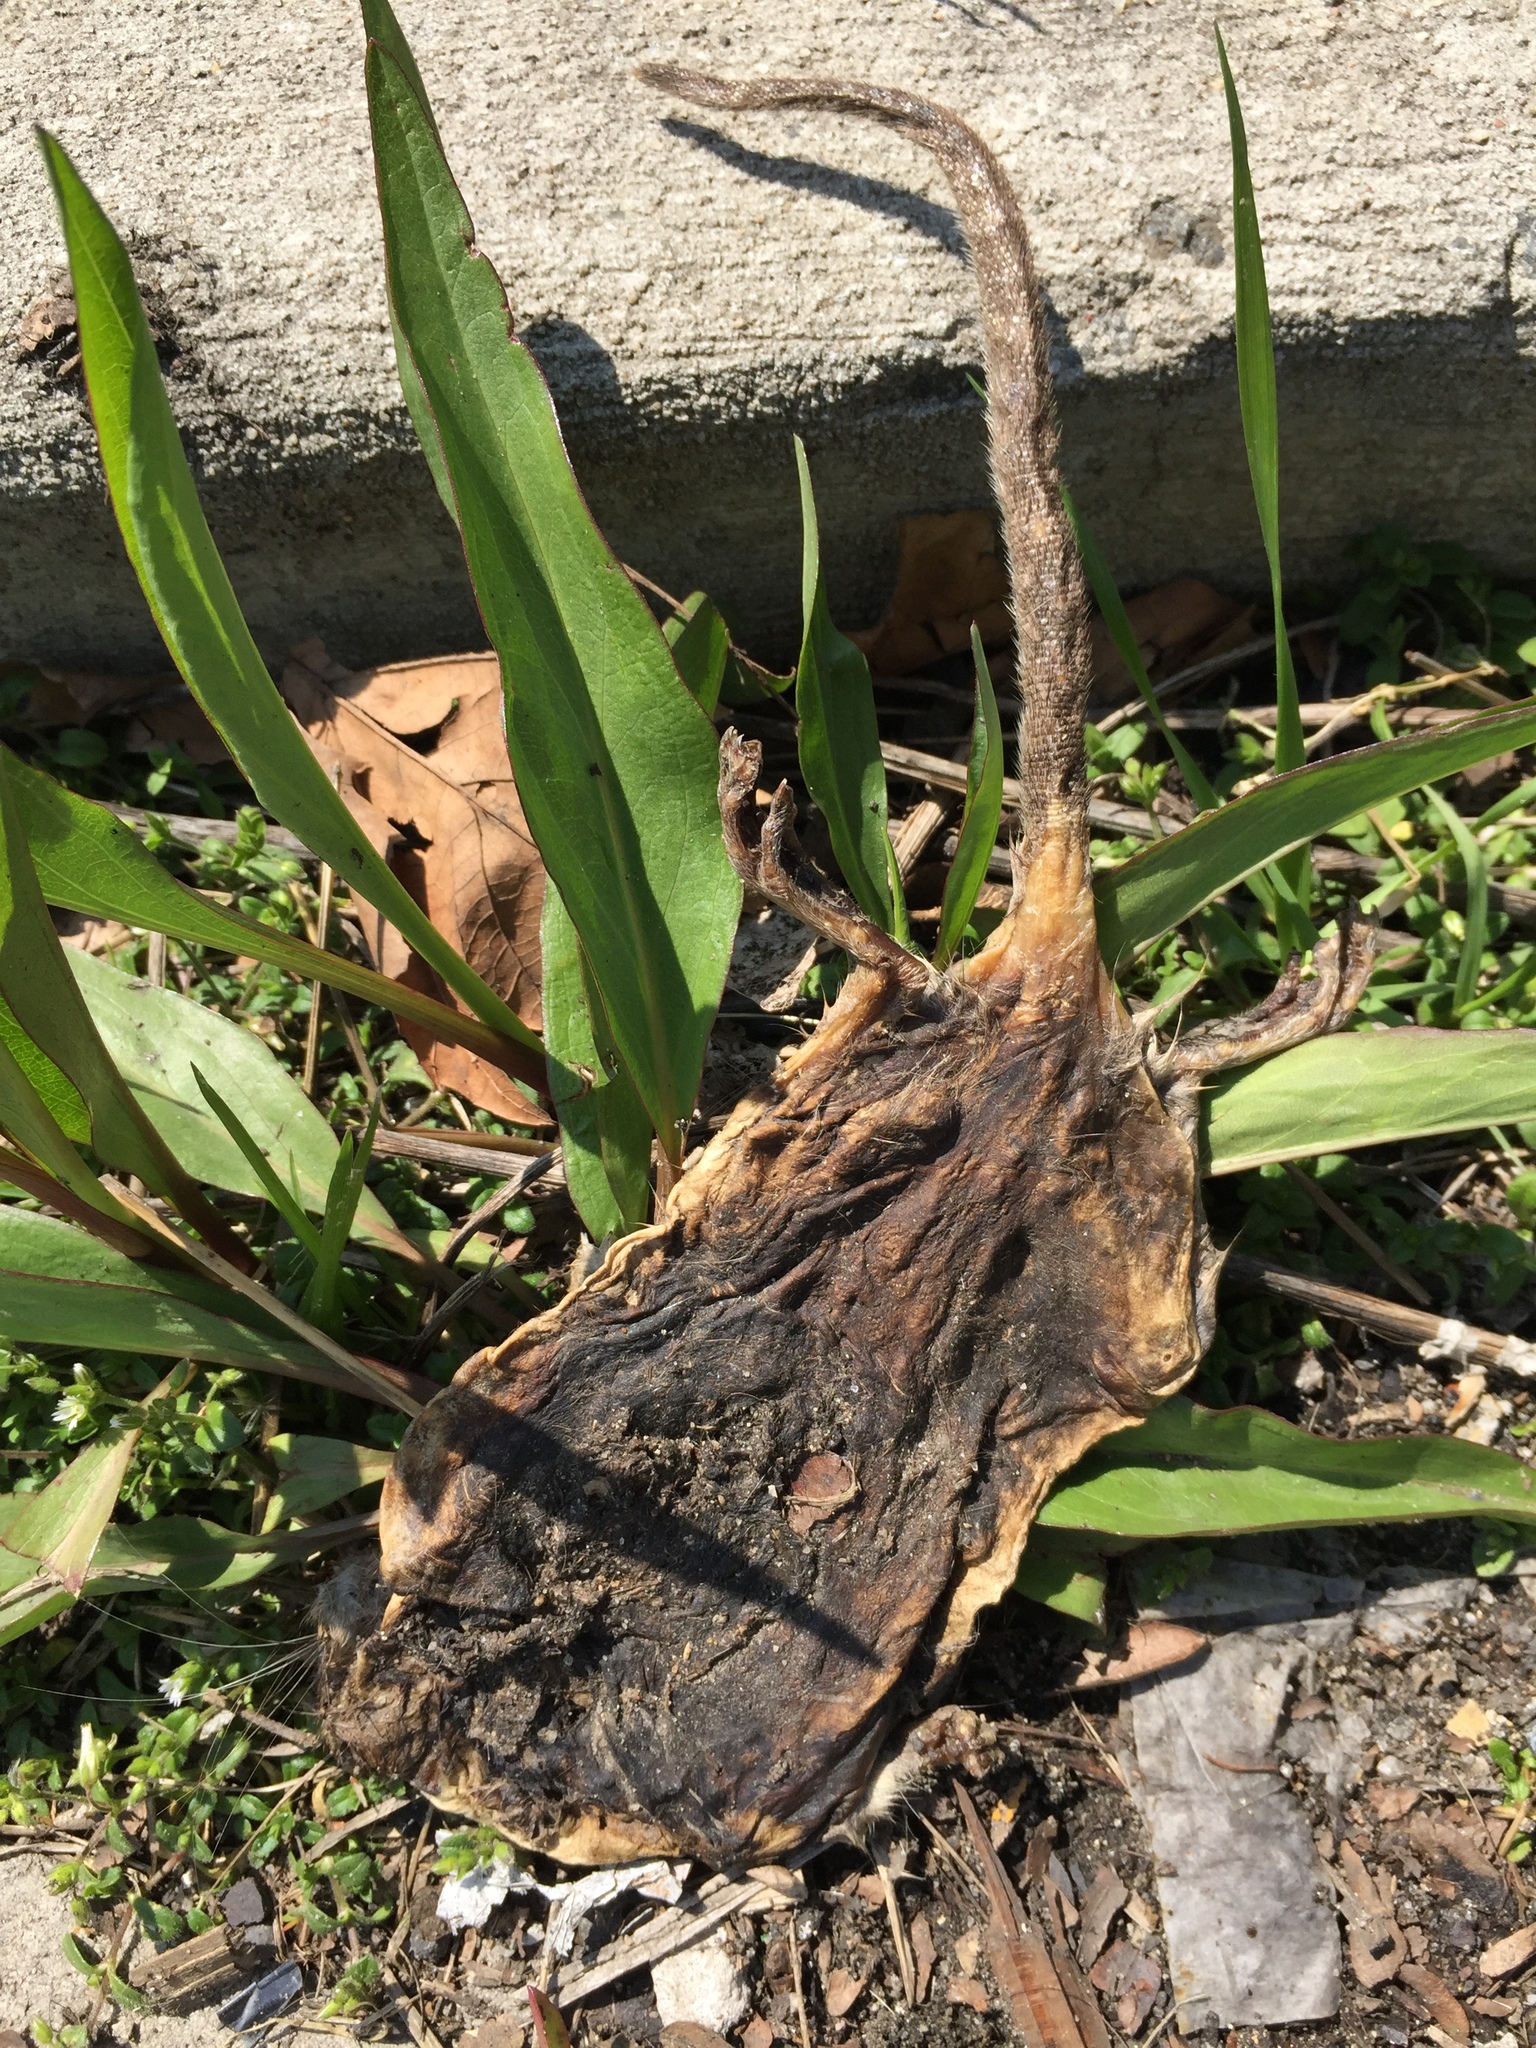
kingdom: Animalia
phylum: Chordata
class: Mammalia
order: Rodentia
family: Muridae
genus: Rattus
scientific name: Rattus norvegicus
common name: Brown rat
